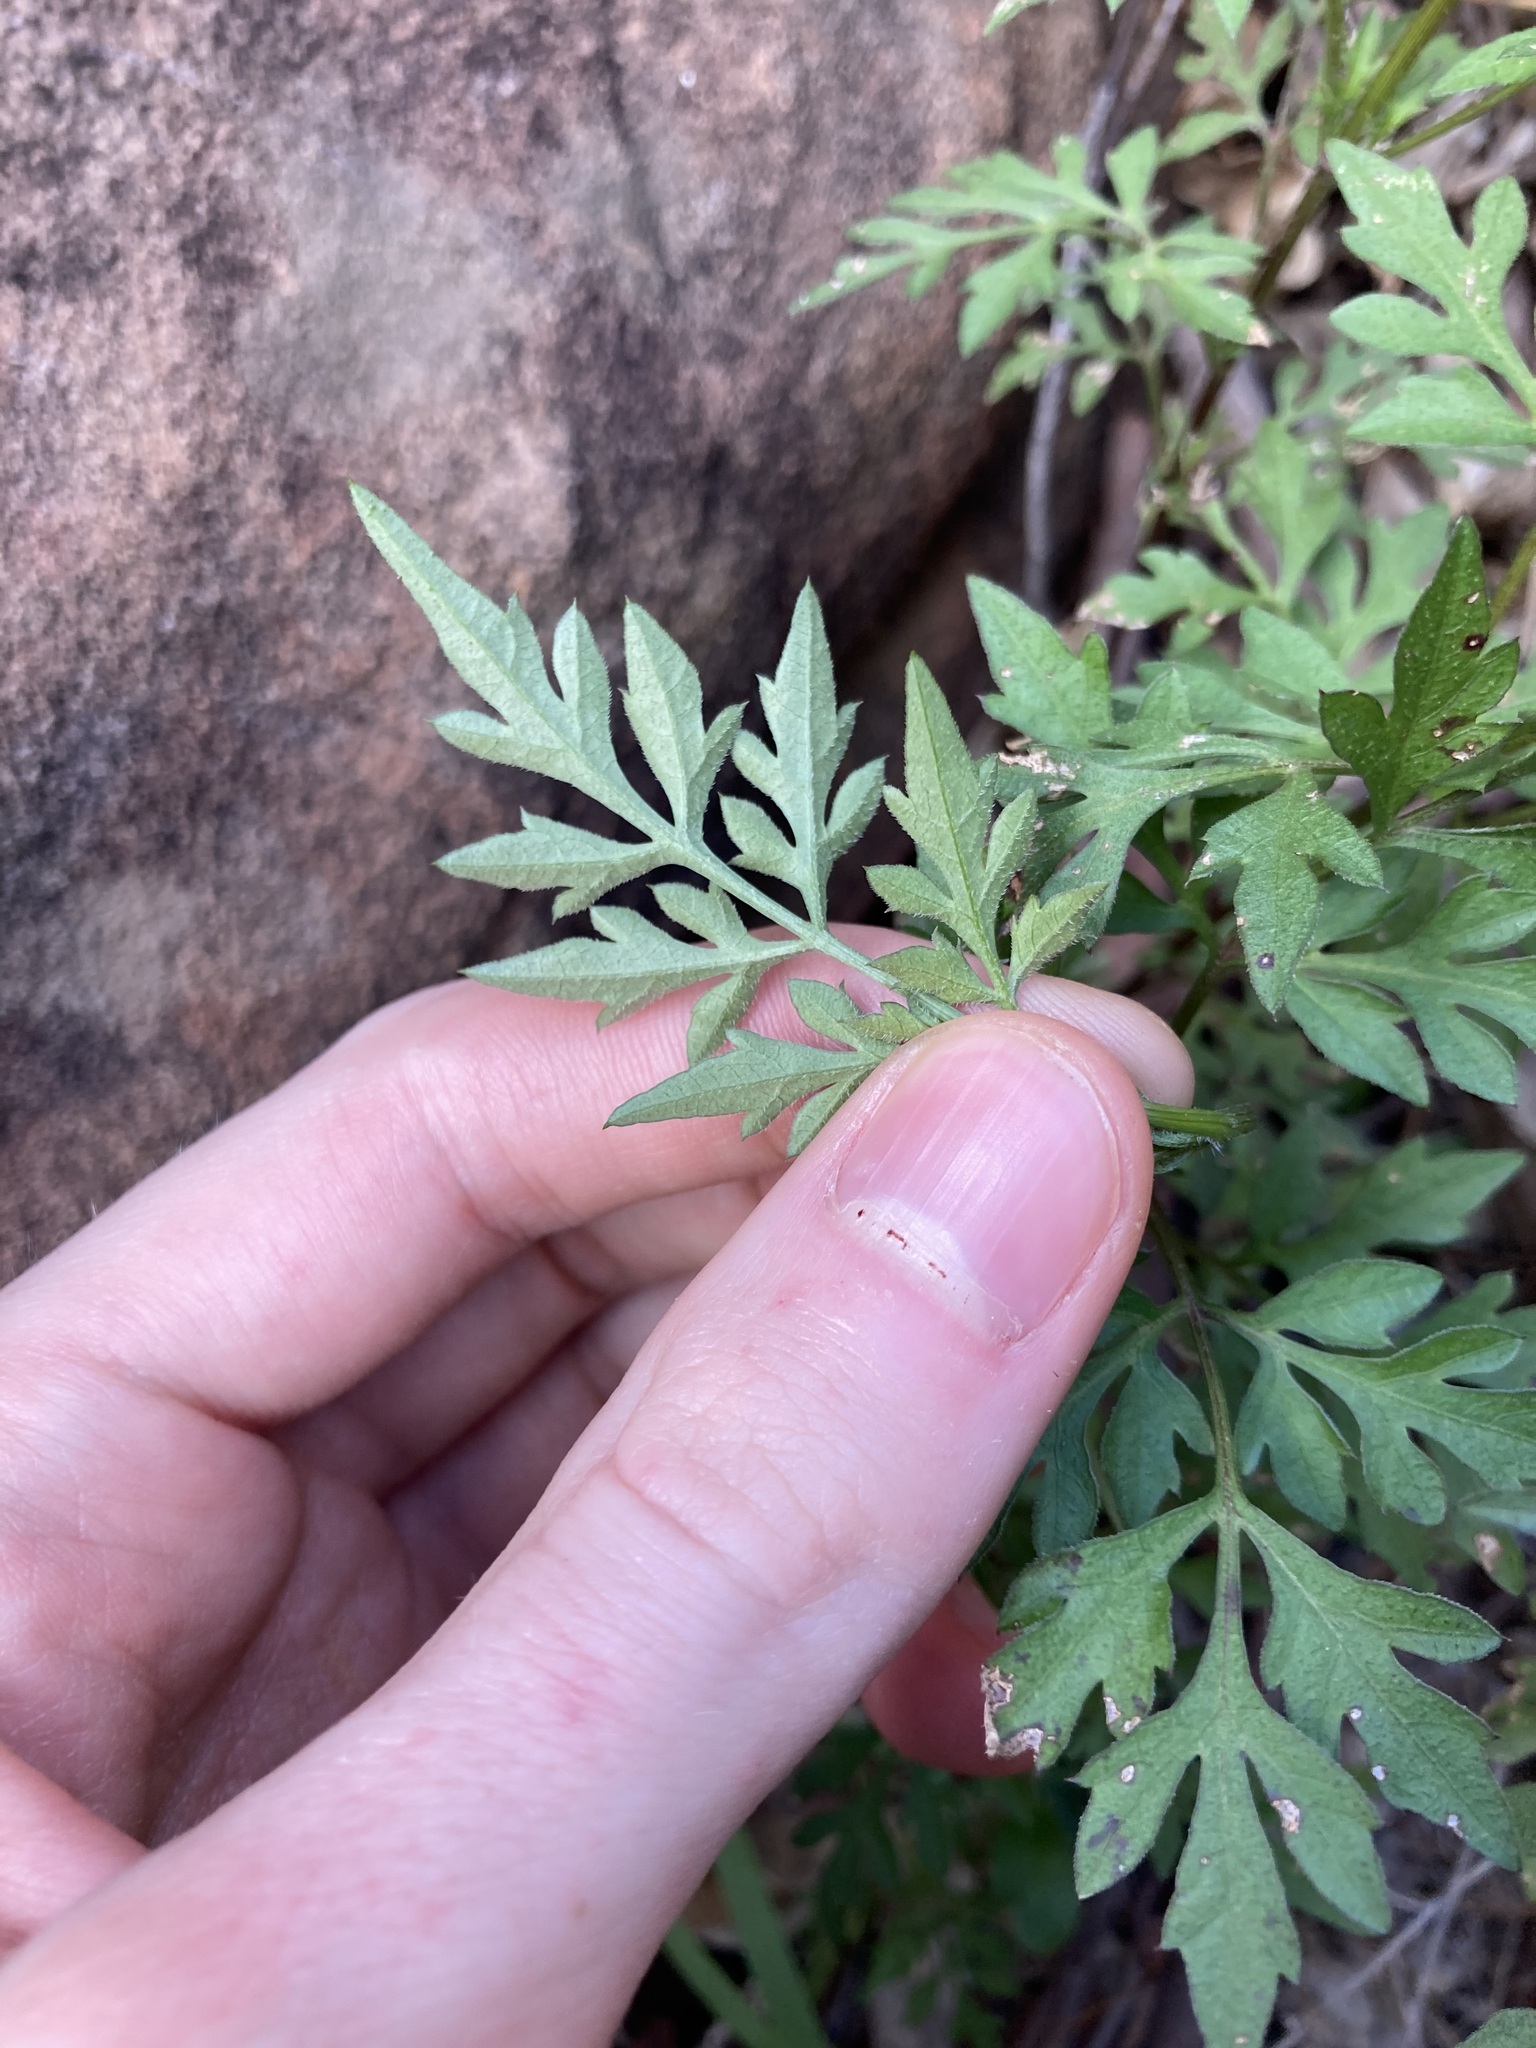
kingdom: Plantae
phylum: Tracheophyta
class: Magnoliopsida
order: Asterales
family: Asteraceae
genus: Bidens
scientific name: Bidens bipinnata
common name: Spanish-needles
